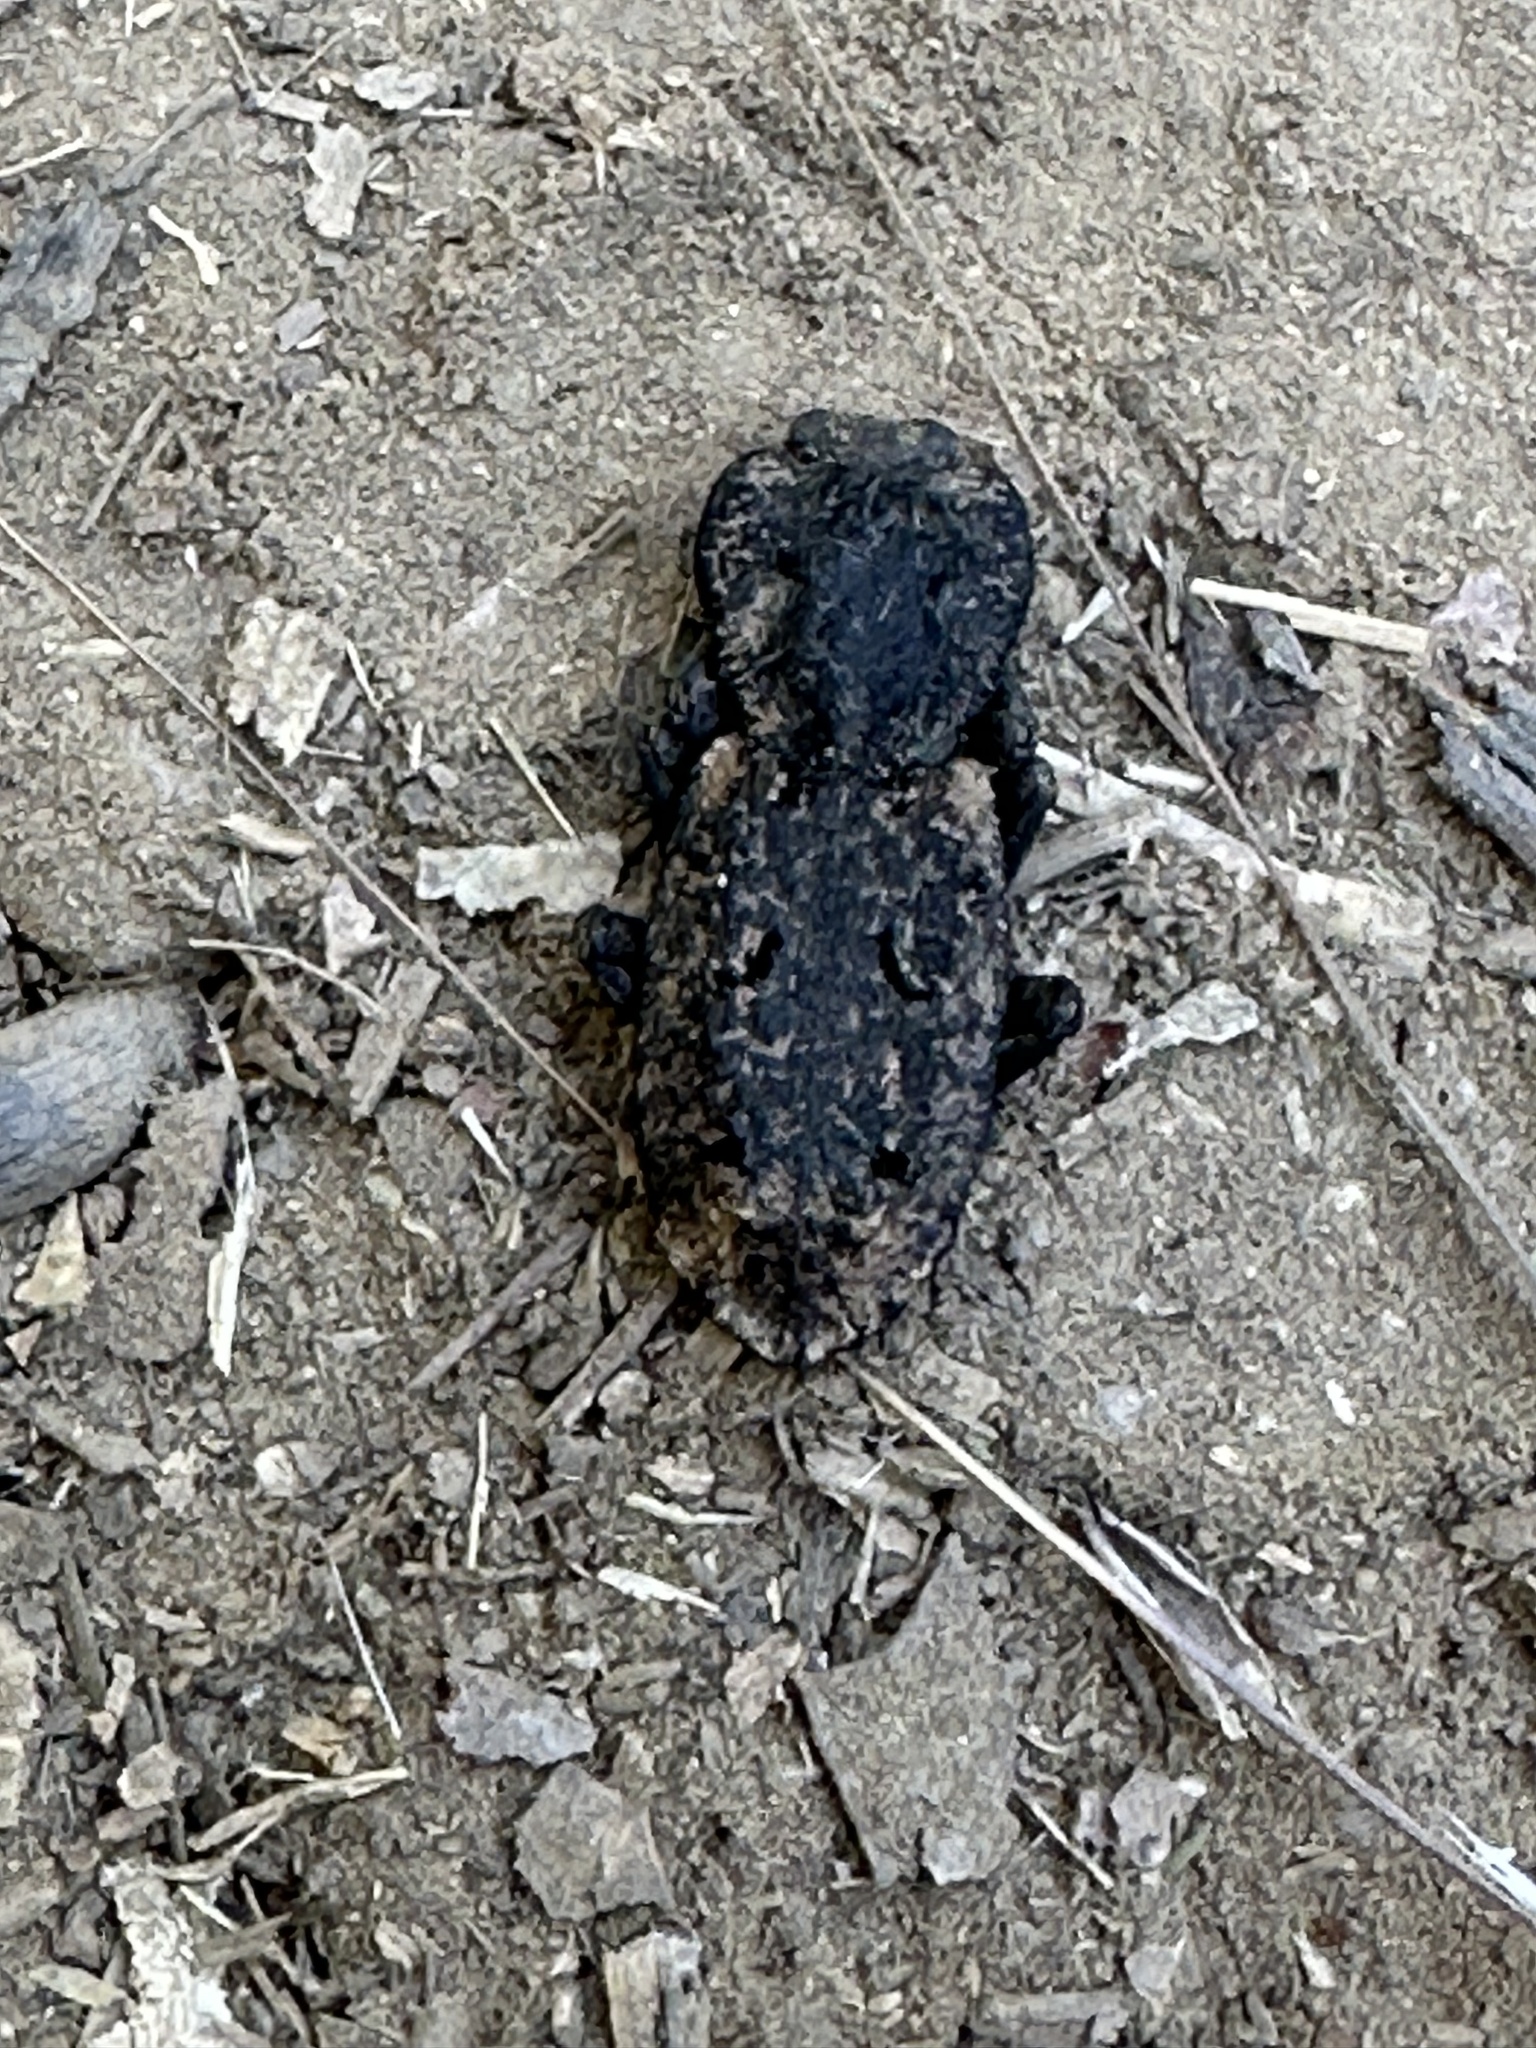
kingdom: Animalia
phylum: Arthropoda
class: Insecta
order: Coleoptera
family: Zopheridae
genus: Phloeodes
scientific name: Phloeodes diabolicus
